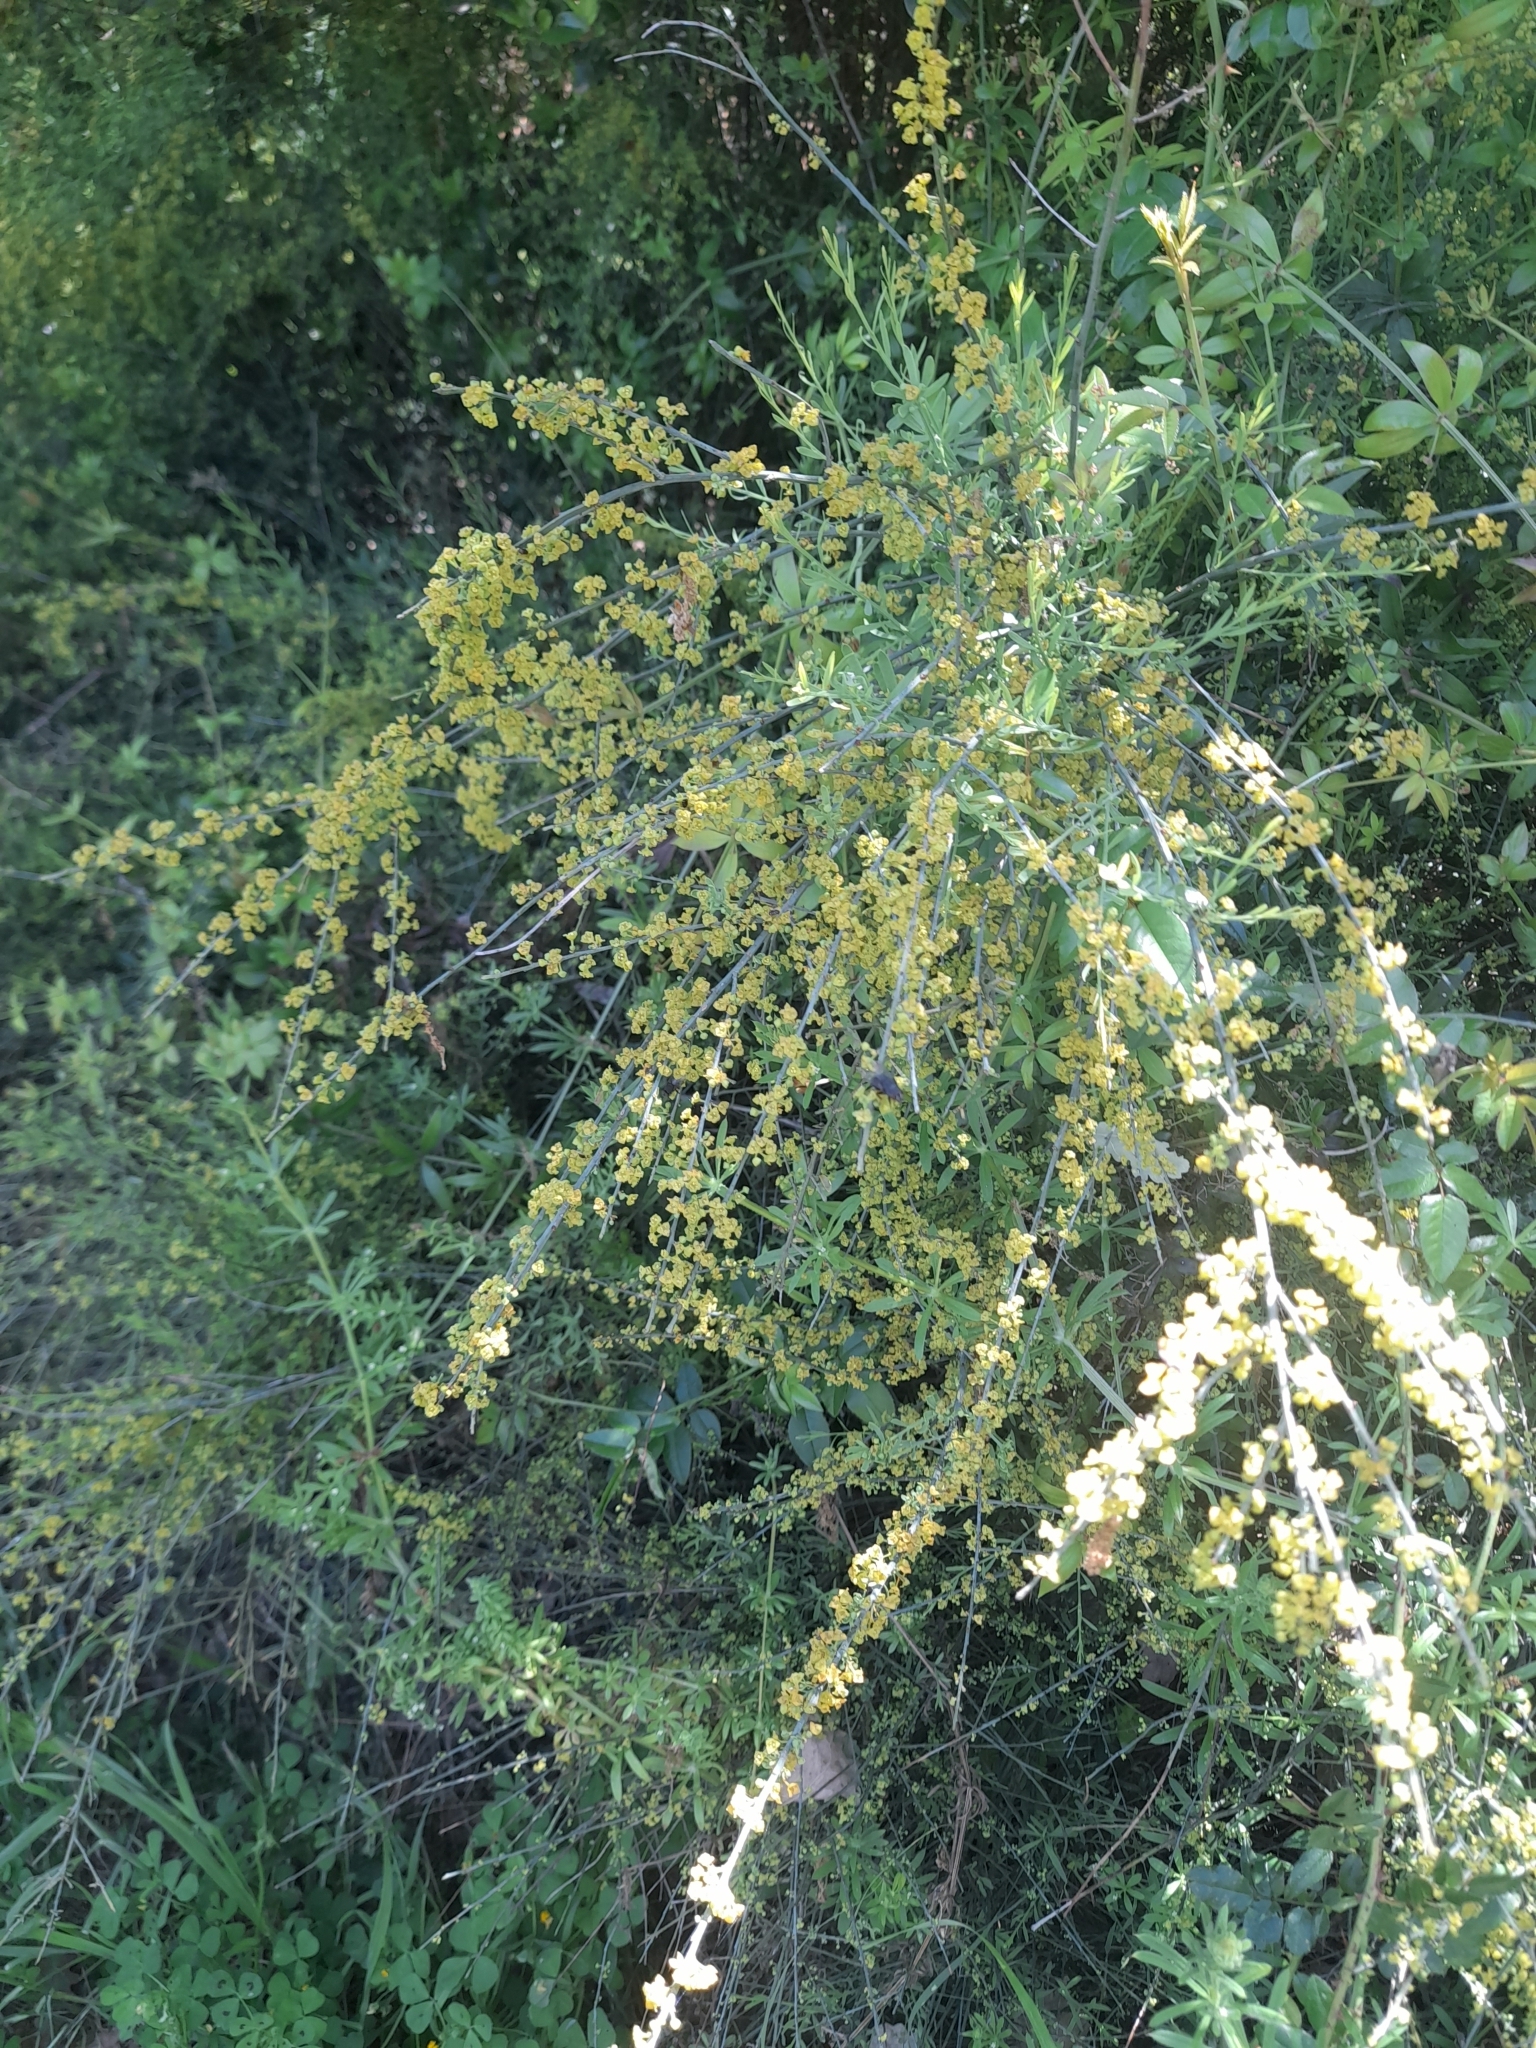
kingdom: Plantae
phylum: Tracheophyta
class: Magnoliopsida
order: Santalales
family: Santalaceae
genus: Osyris
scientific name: Osyris alba
